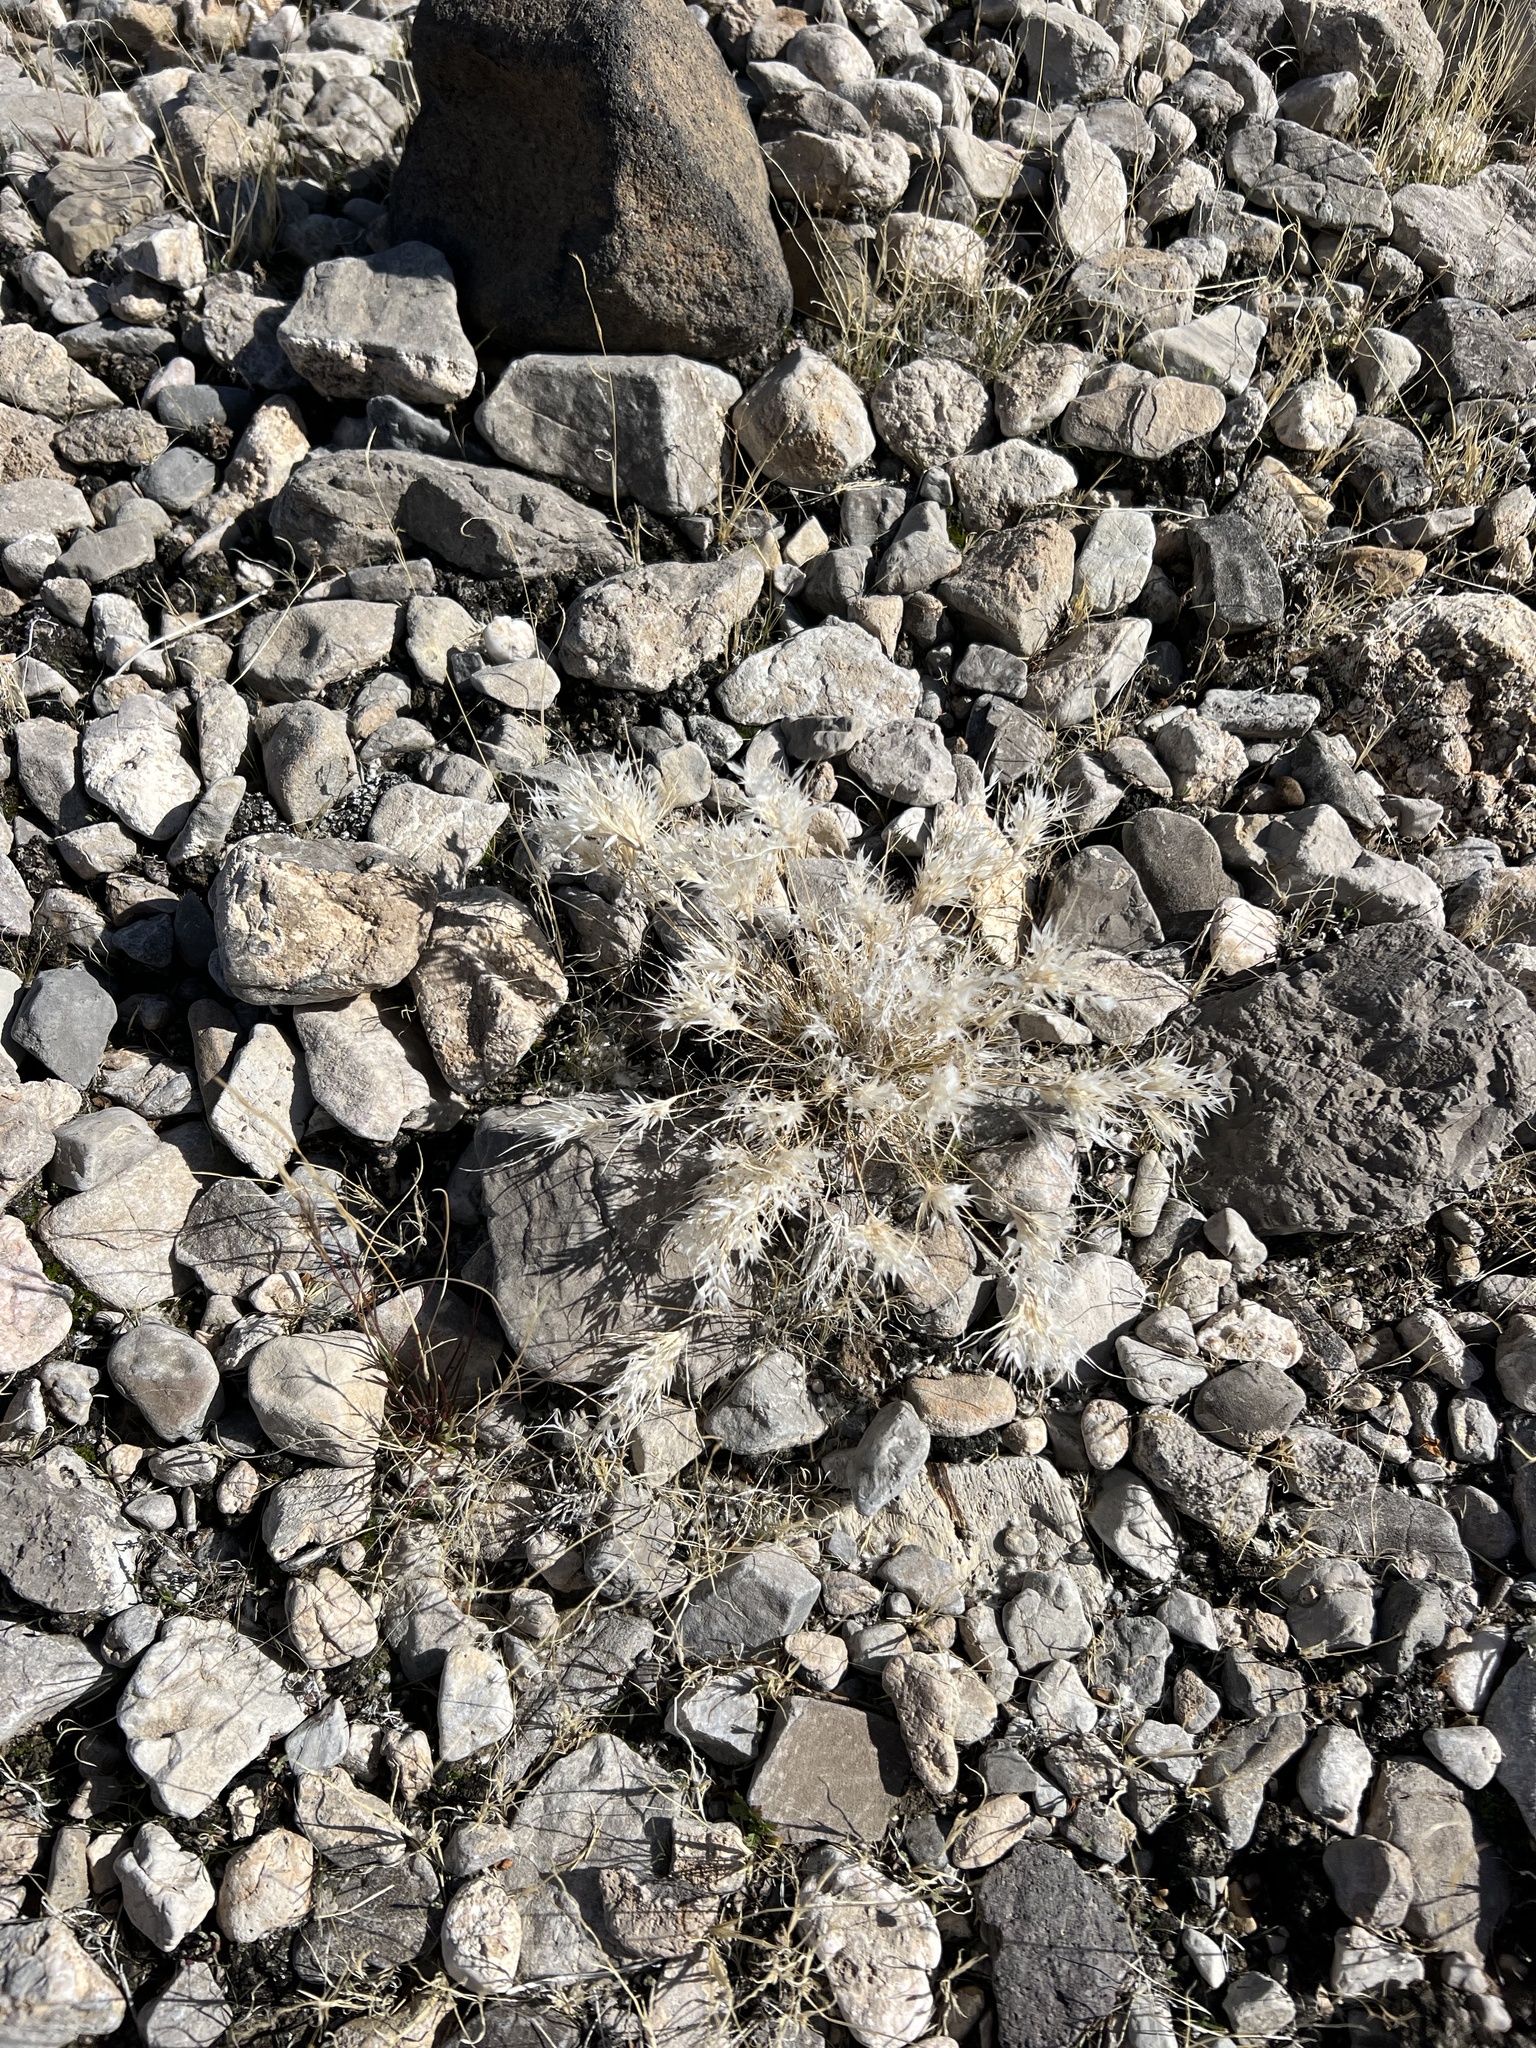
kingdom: Plantae
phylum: Tracheophyta
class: Liliopsida
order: Poales
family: Poaceae
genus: Dasyochloa
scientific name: Dasyochloa pulchella
